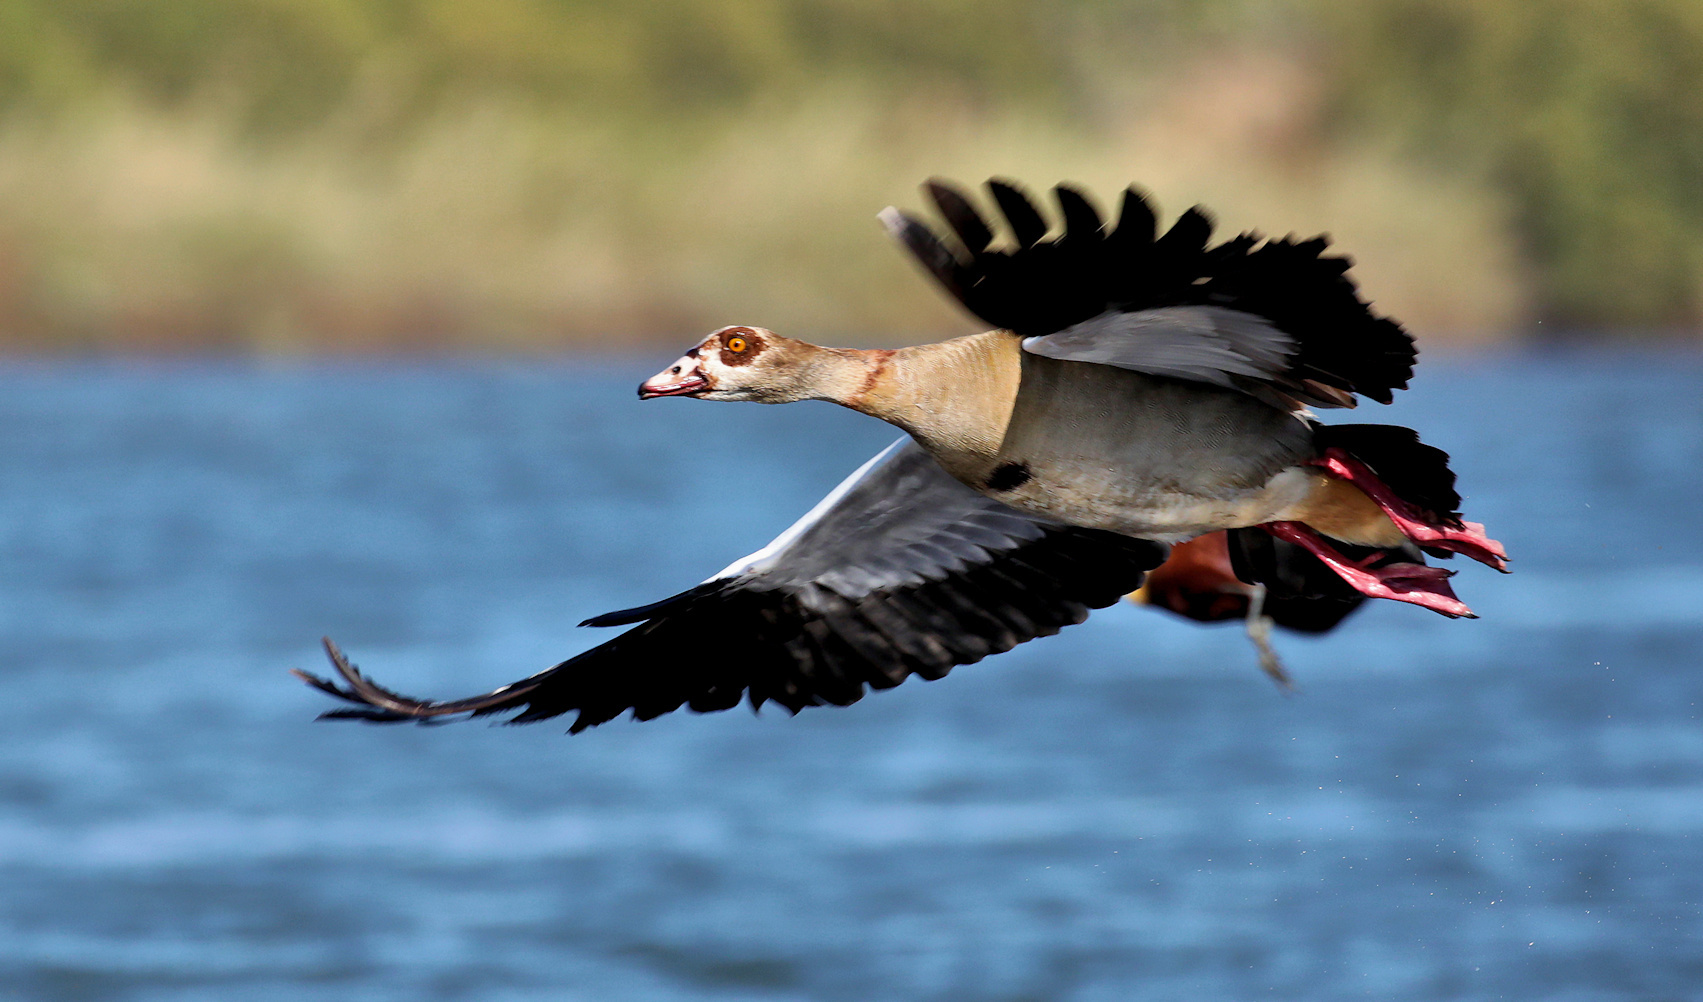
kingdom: Animalia
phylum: Chordata
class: Aves
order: Anseriformes
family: Anatidae
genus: Alopochen
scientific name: Alopochen aegyptiaca
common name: Egyptian goose
